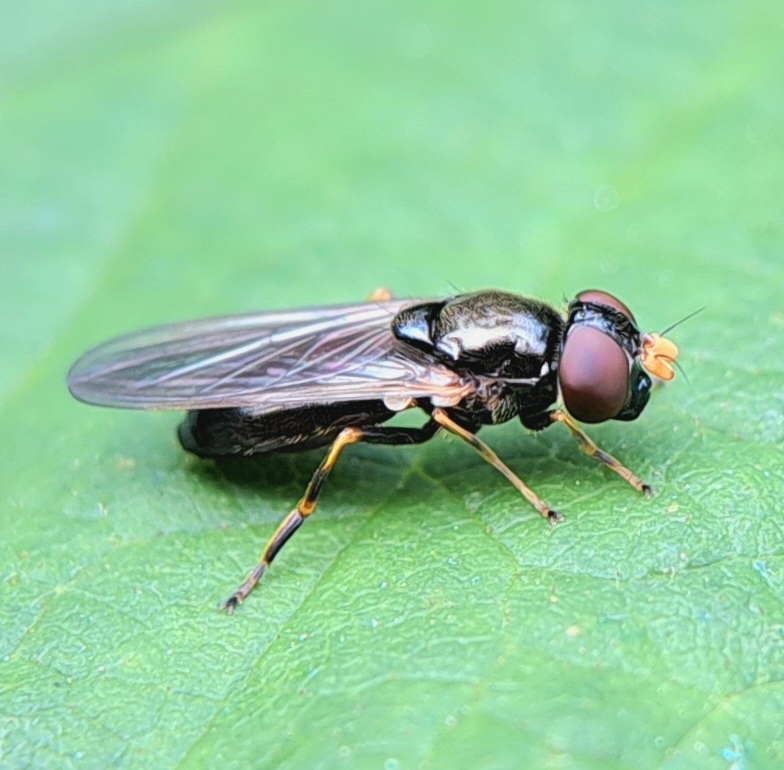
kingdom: Animalia
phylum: Arthropoda
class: Insecta
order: Diptera
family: Syrphidae
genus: Cheilosia
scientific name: Cheilosia pagana
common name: Hover fly
